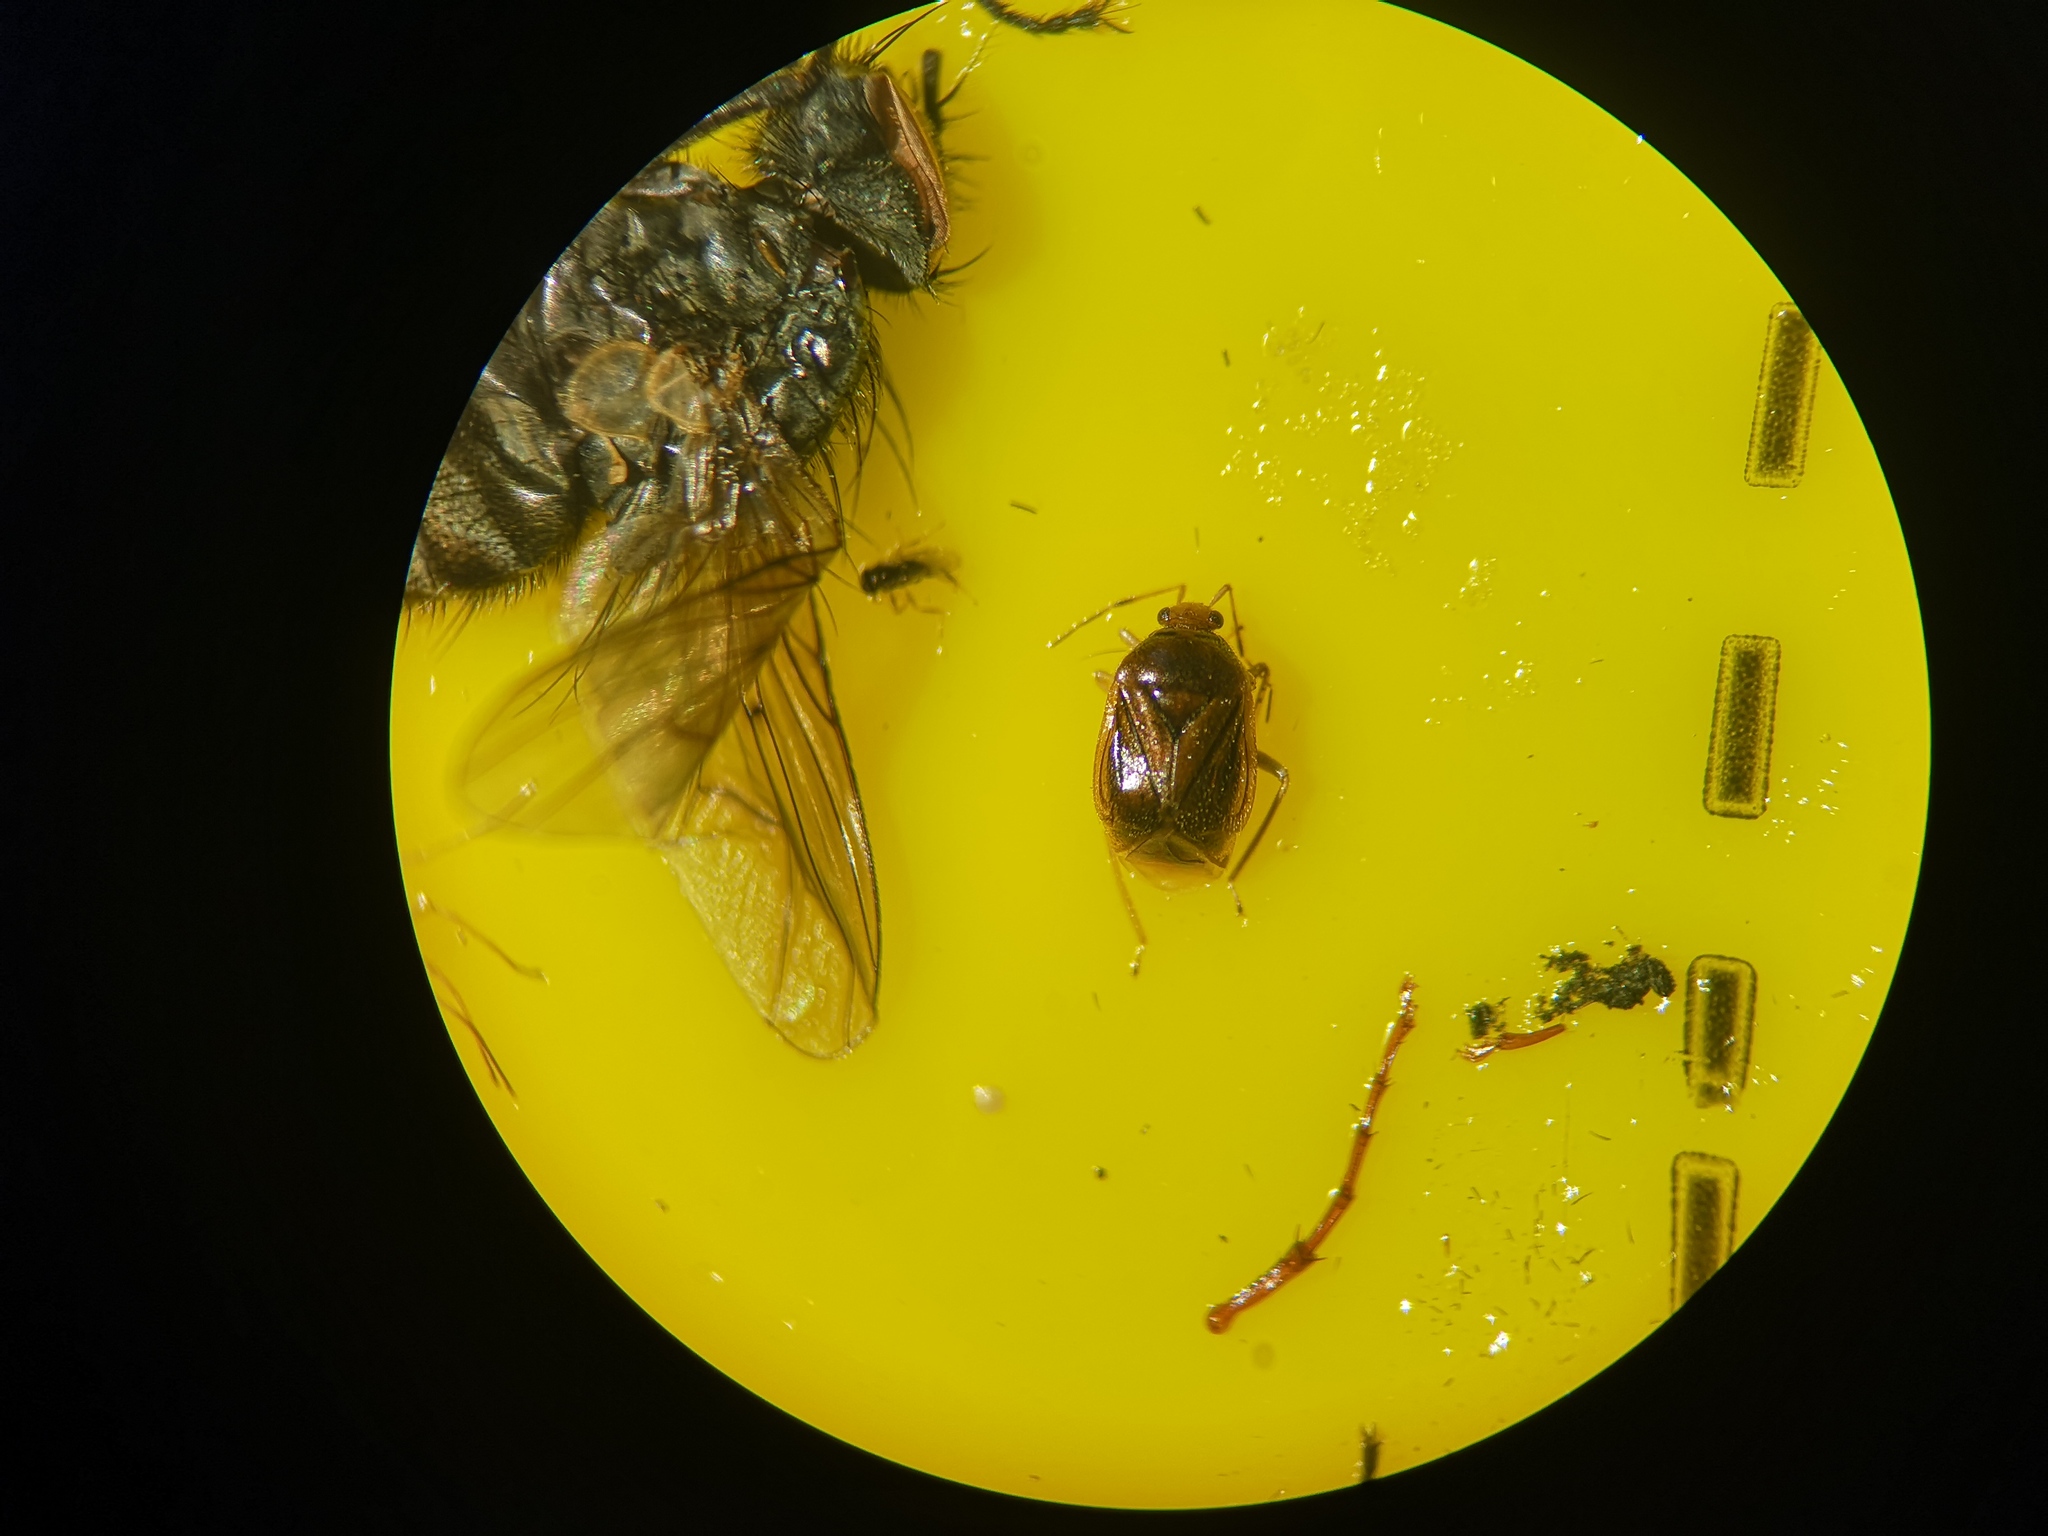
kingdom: Animalia
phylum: Arthropoda
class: Insecta
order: Hemiptera
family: Miridae
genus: Monalocoris
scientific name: Monalocoris filicis
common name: Bracken bug
